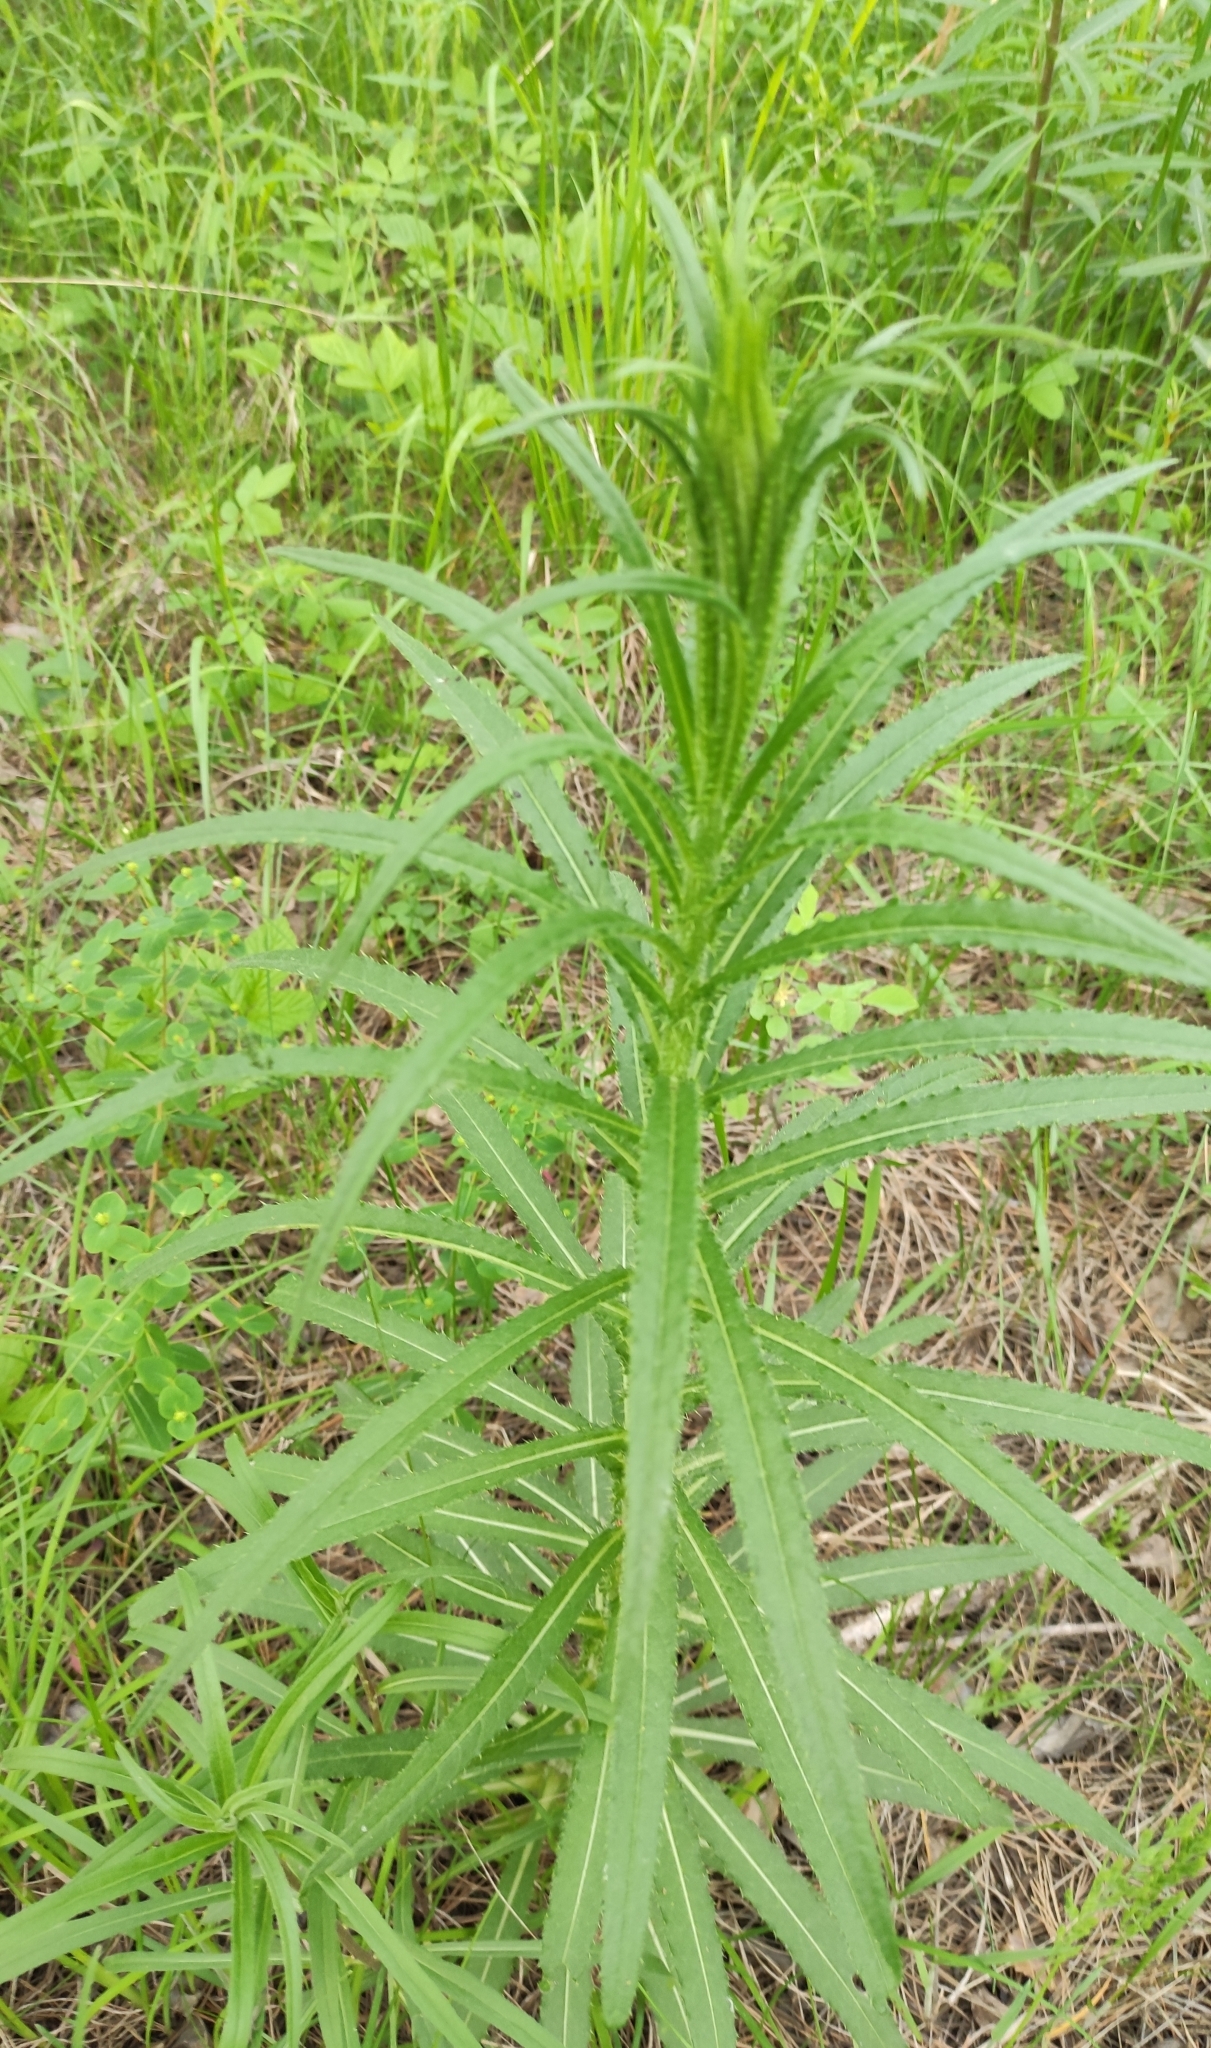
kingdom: Plantae
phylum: Tracheophyta
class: Magnoliopsida
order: Asterales
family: Asteraceae
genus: Cirsium
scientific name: Cirsium serratuloides
